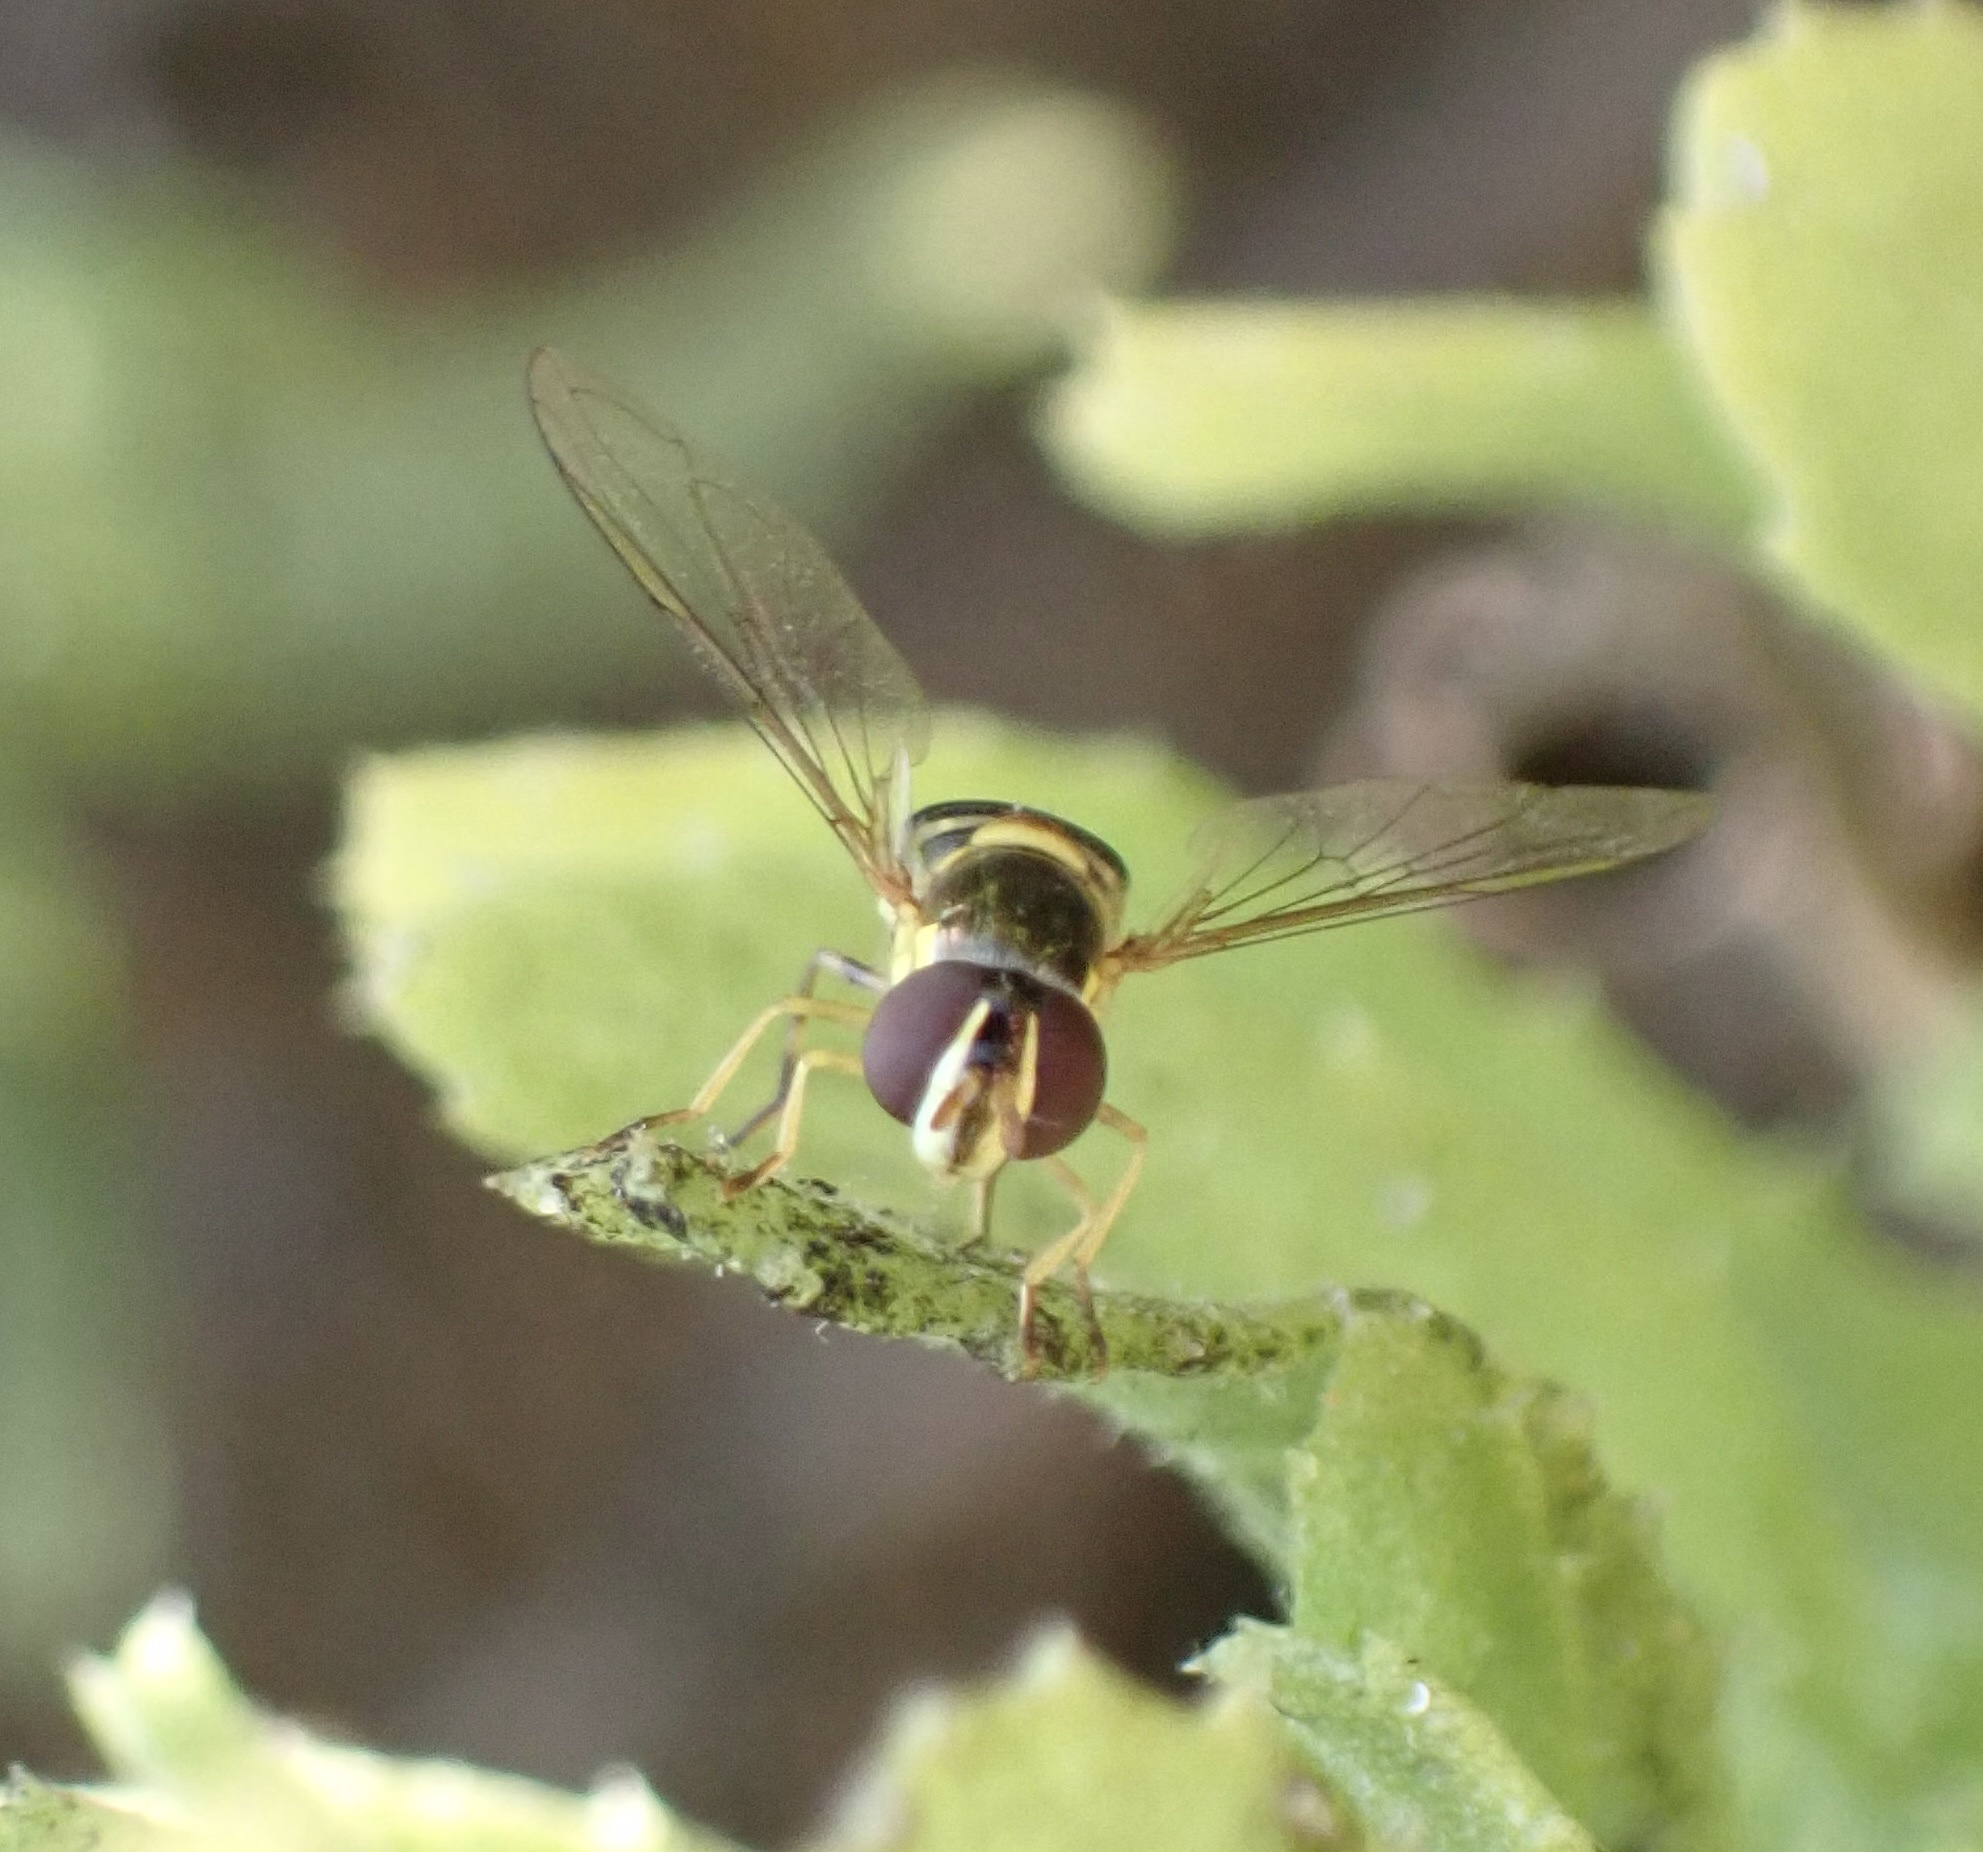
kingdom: Animalia
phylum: Arthropoda
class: Insecta
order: Diptera
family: Syrphidae
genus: Allograpta
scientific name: Allograpta obliqua
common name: Common oblique syrphid
